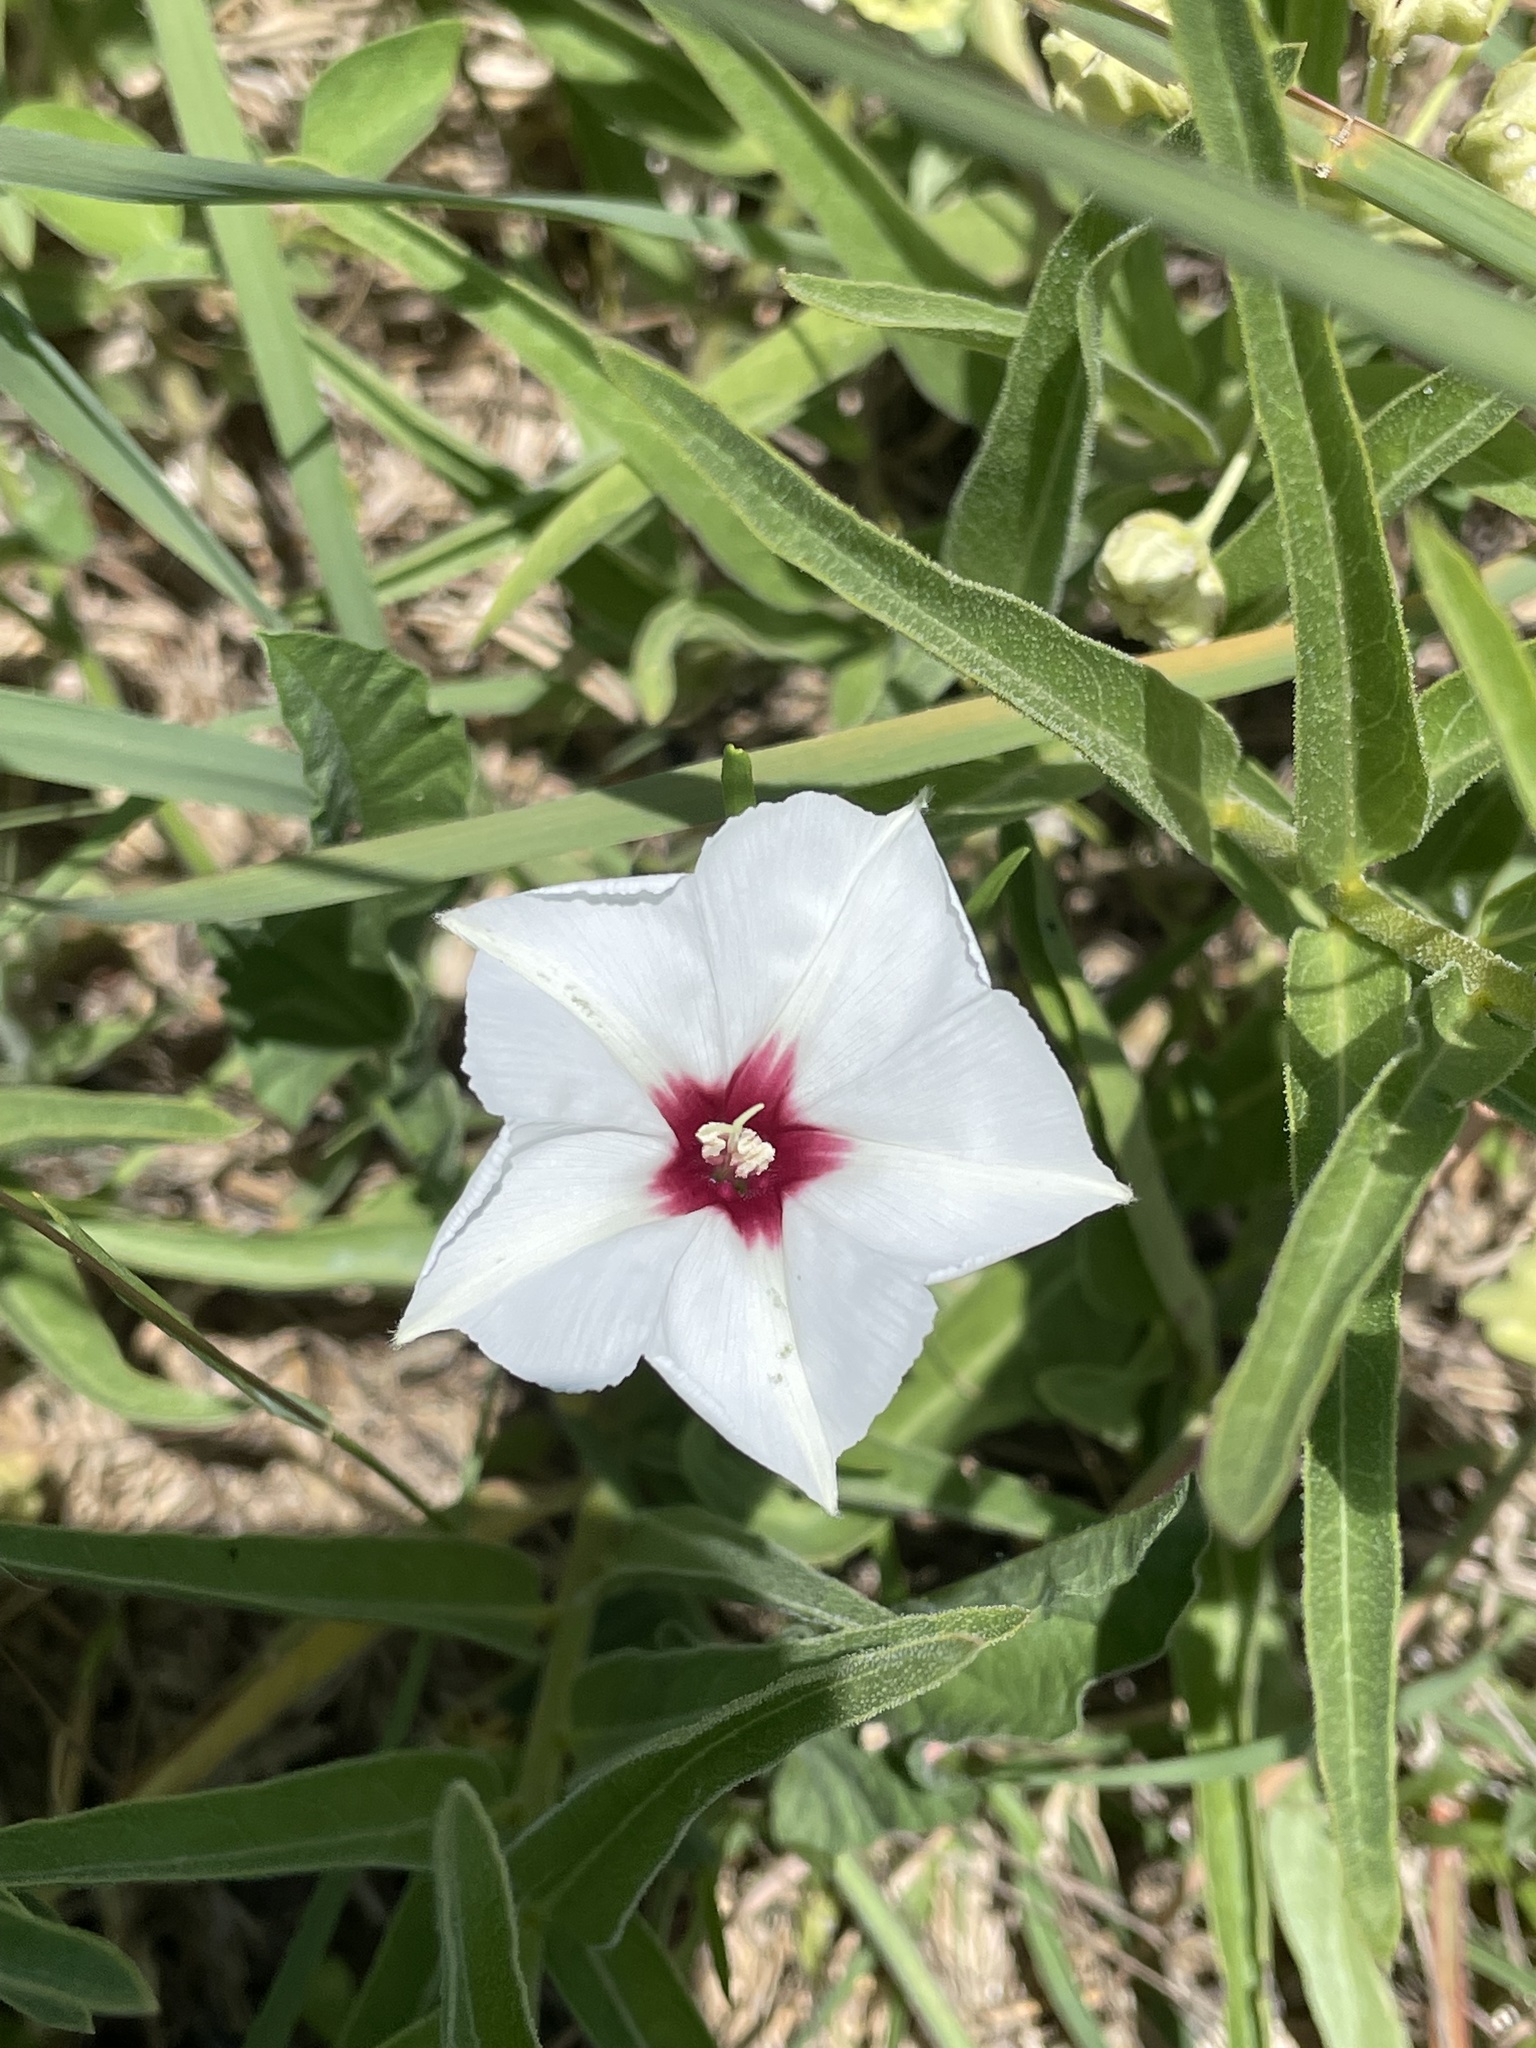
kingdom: Plantae
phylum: Tracheophyta
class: Magnoliopsida
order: Solanales
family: Convolvulaceae
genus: Convolvulus
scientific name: Convolvulus equitans
